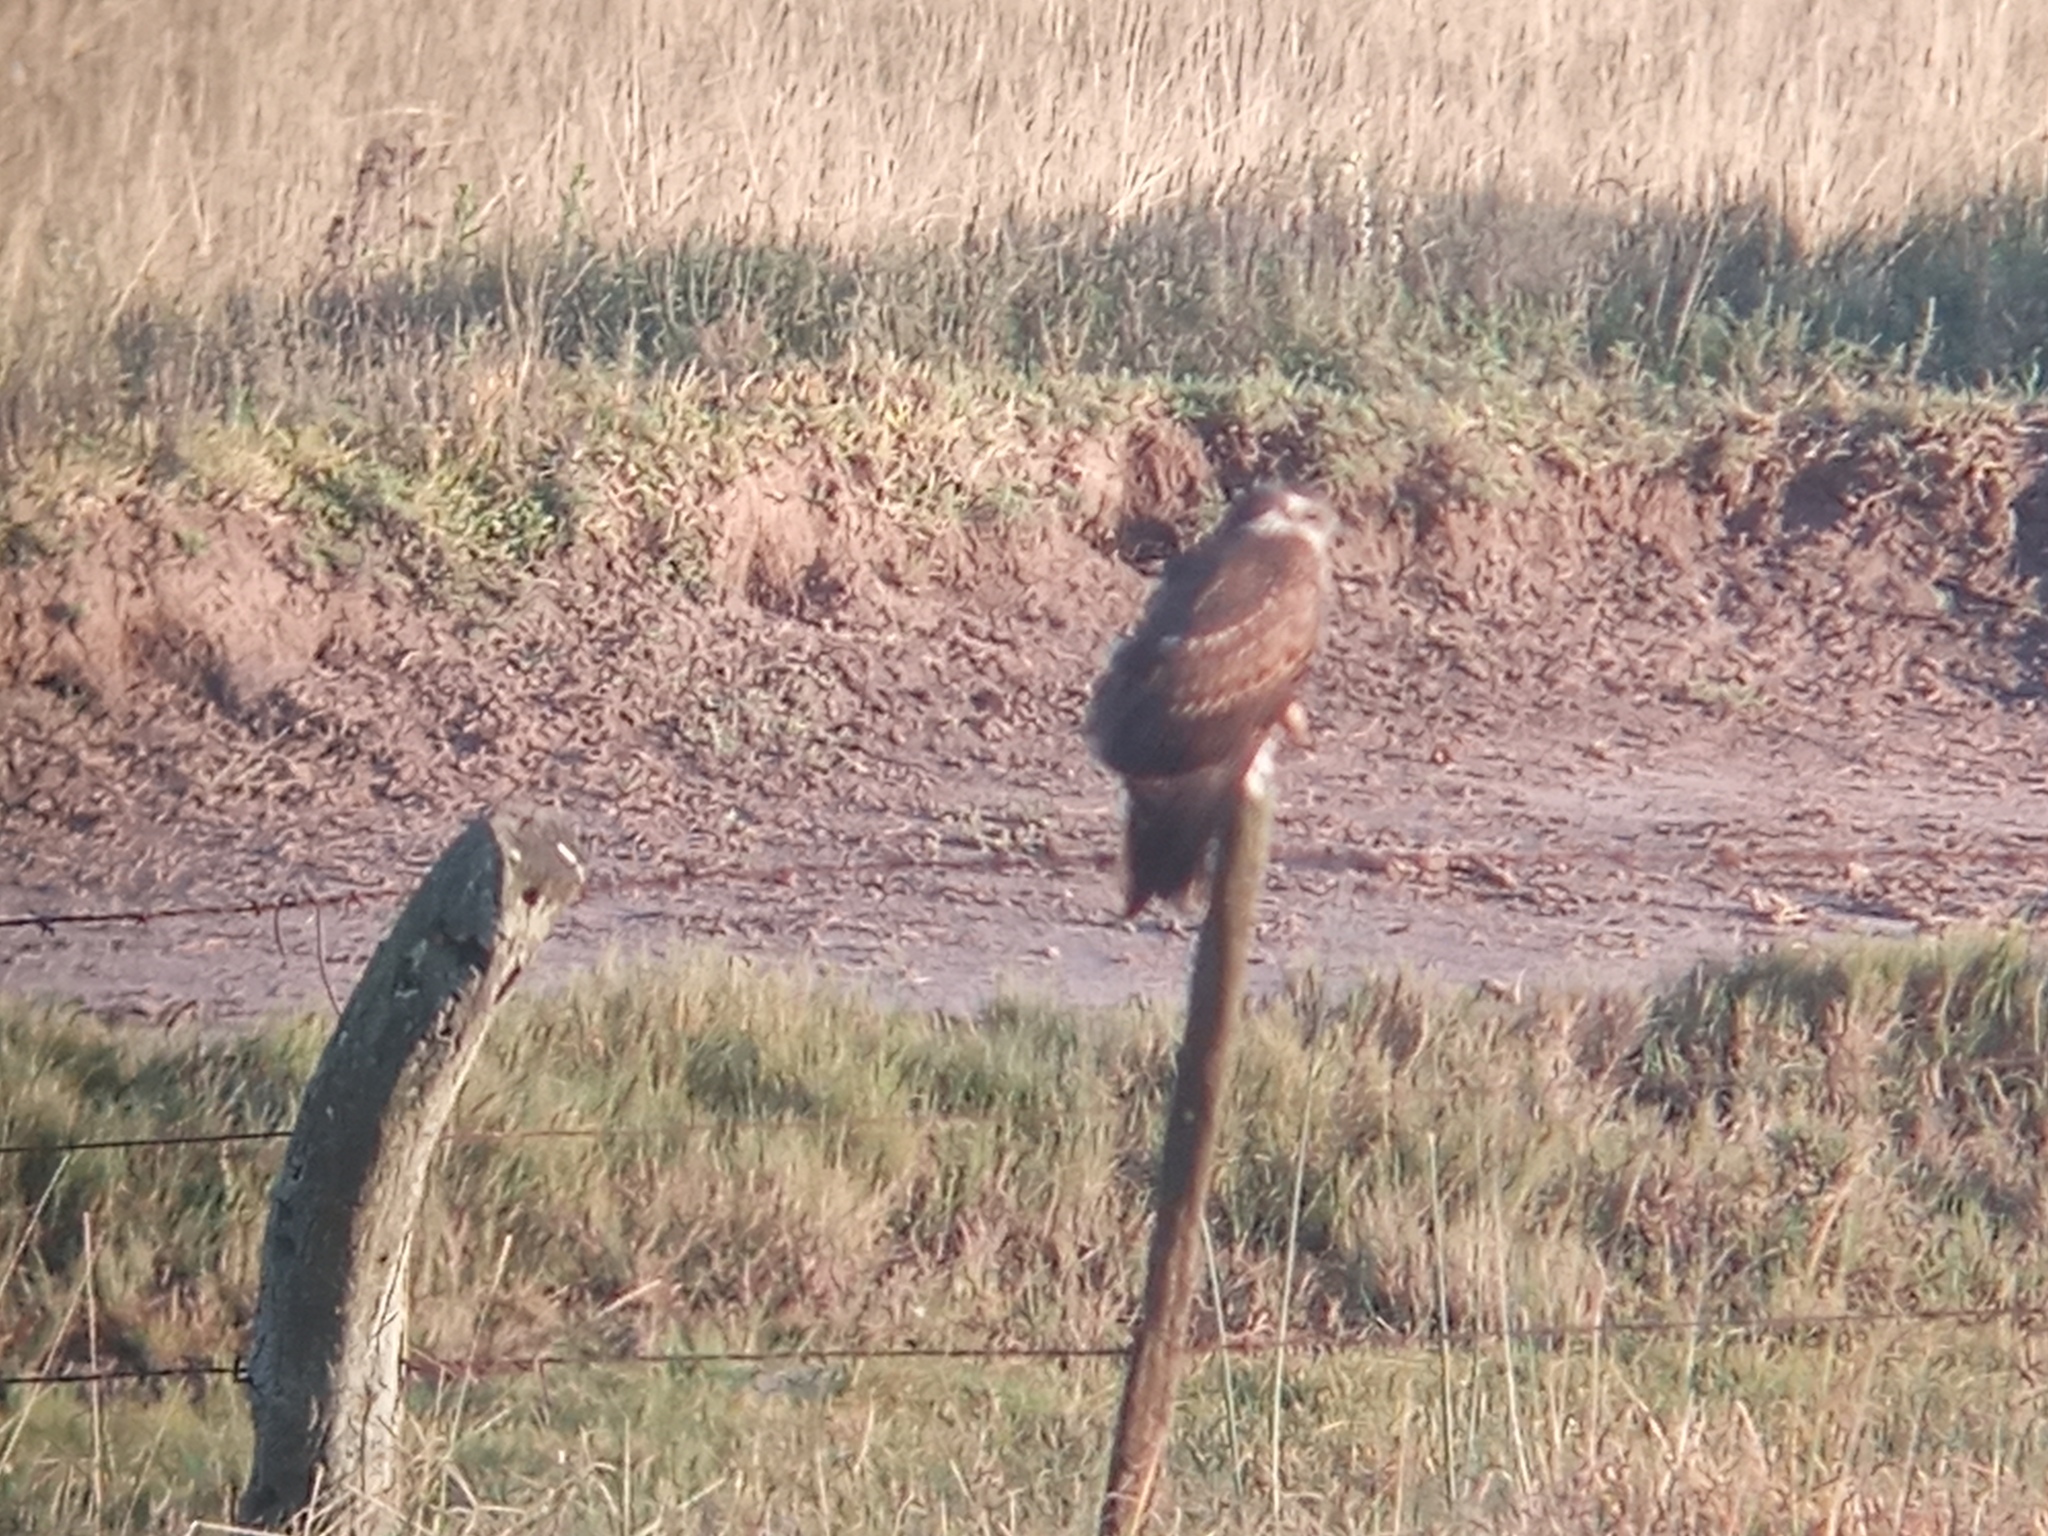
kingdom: Animalia
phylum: Chordata
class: Aves
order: Accipitriformes
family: Accipitridae
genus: Rostrhamus
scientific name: Rostrhamus sociabilis
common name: Snail kite
